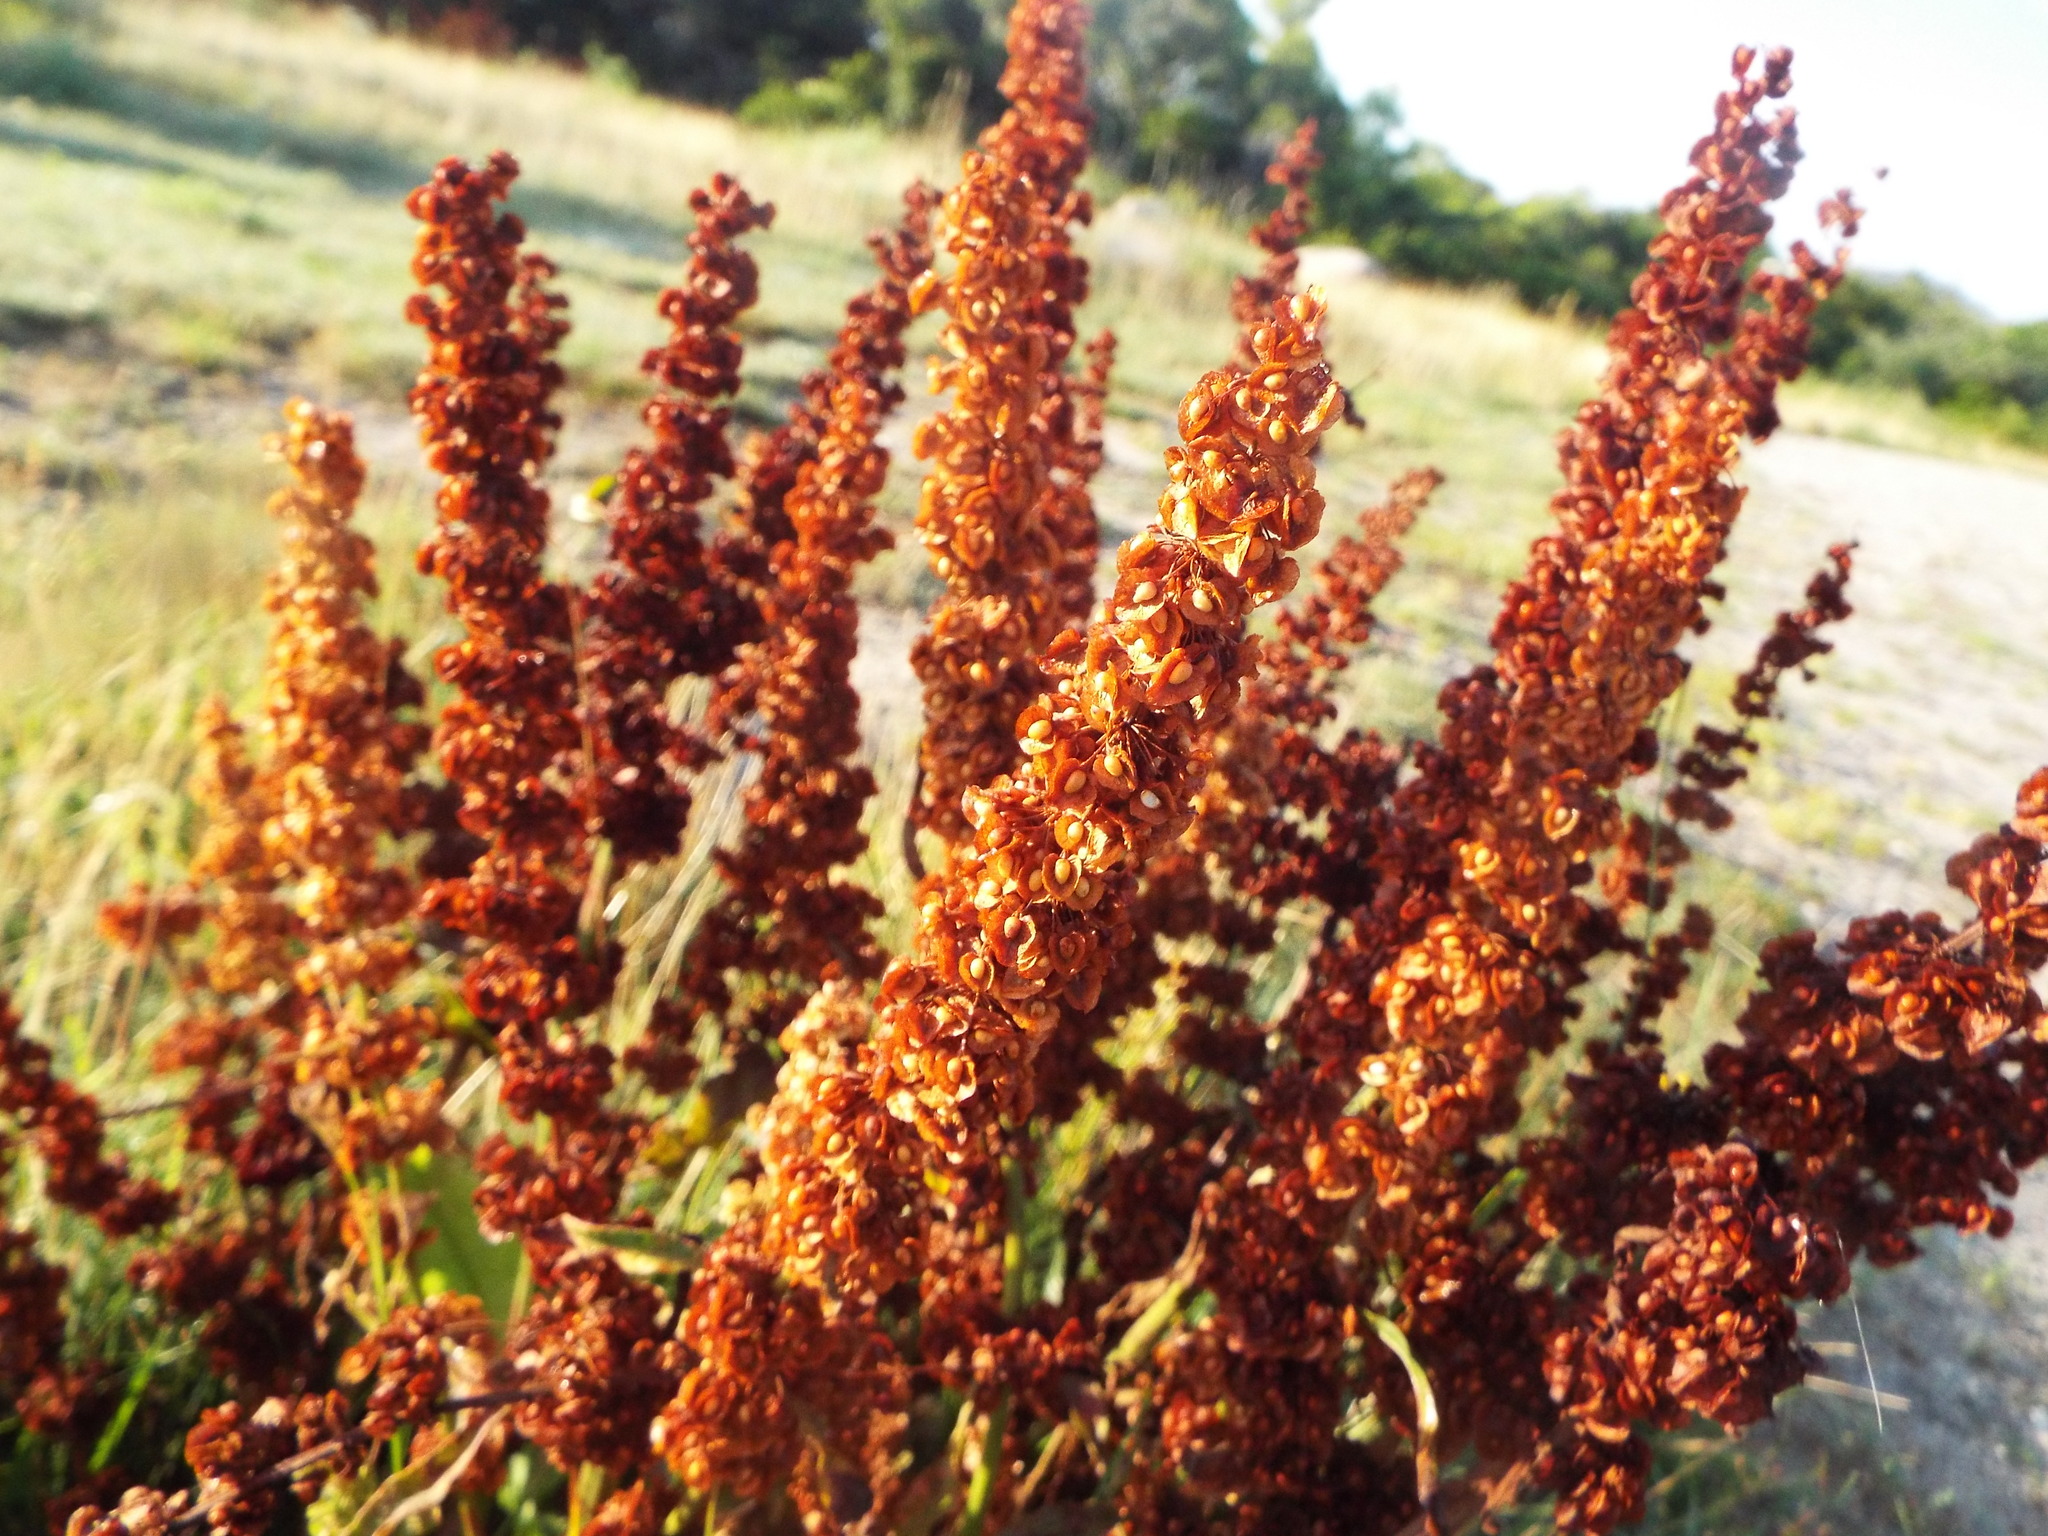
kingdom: Plantae
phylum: Tracheophyta
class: Magnoliopsida
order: Caryophyllales
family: Polygonaceae
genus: Rumex
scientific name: Rumex crispus
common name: Curled dock
